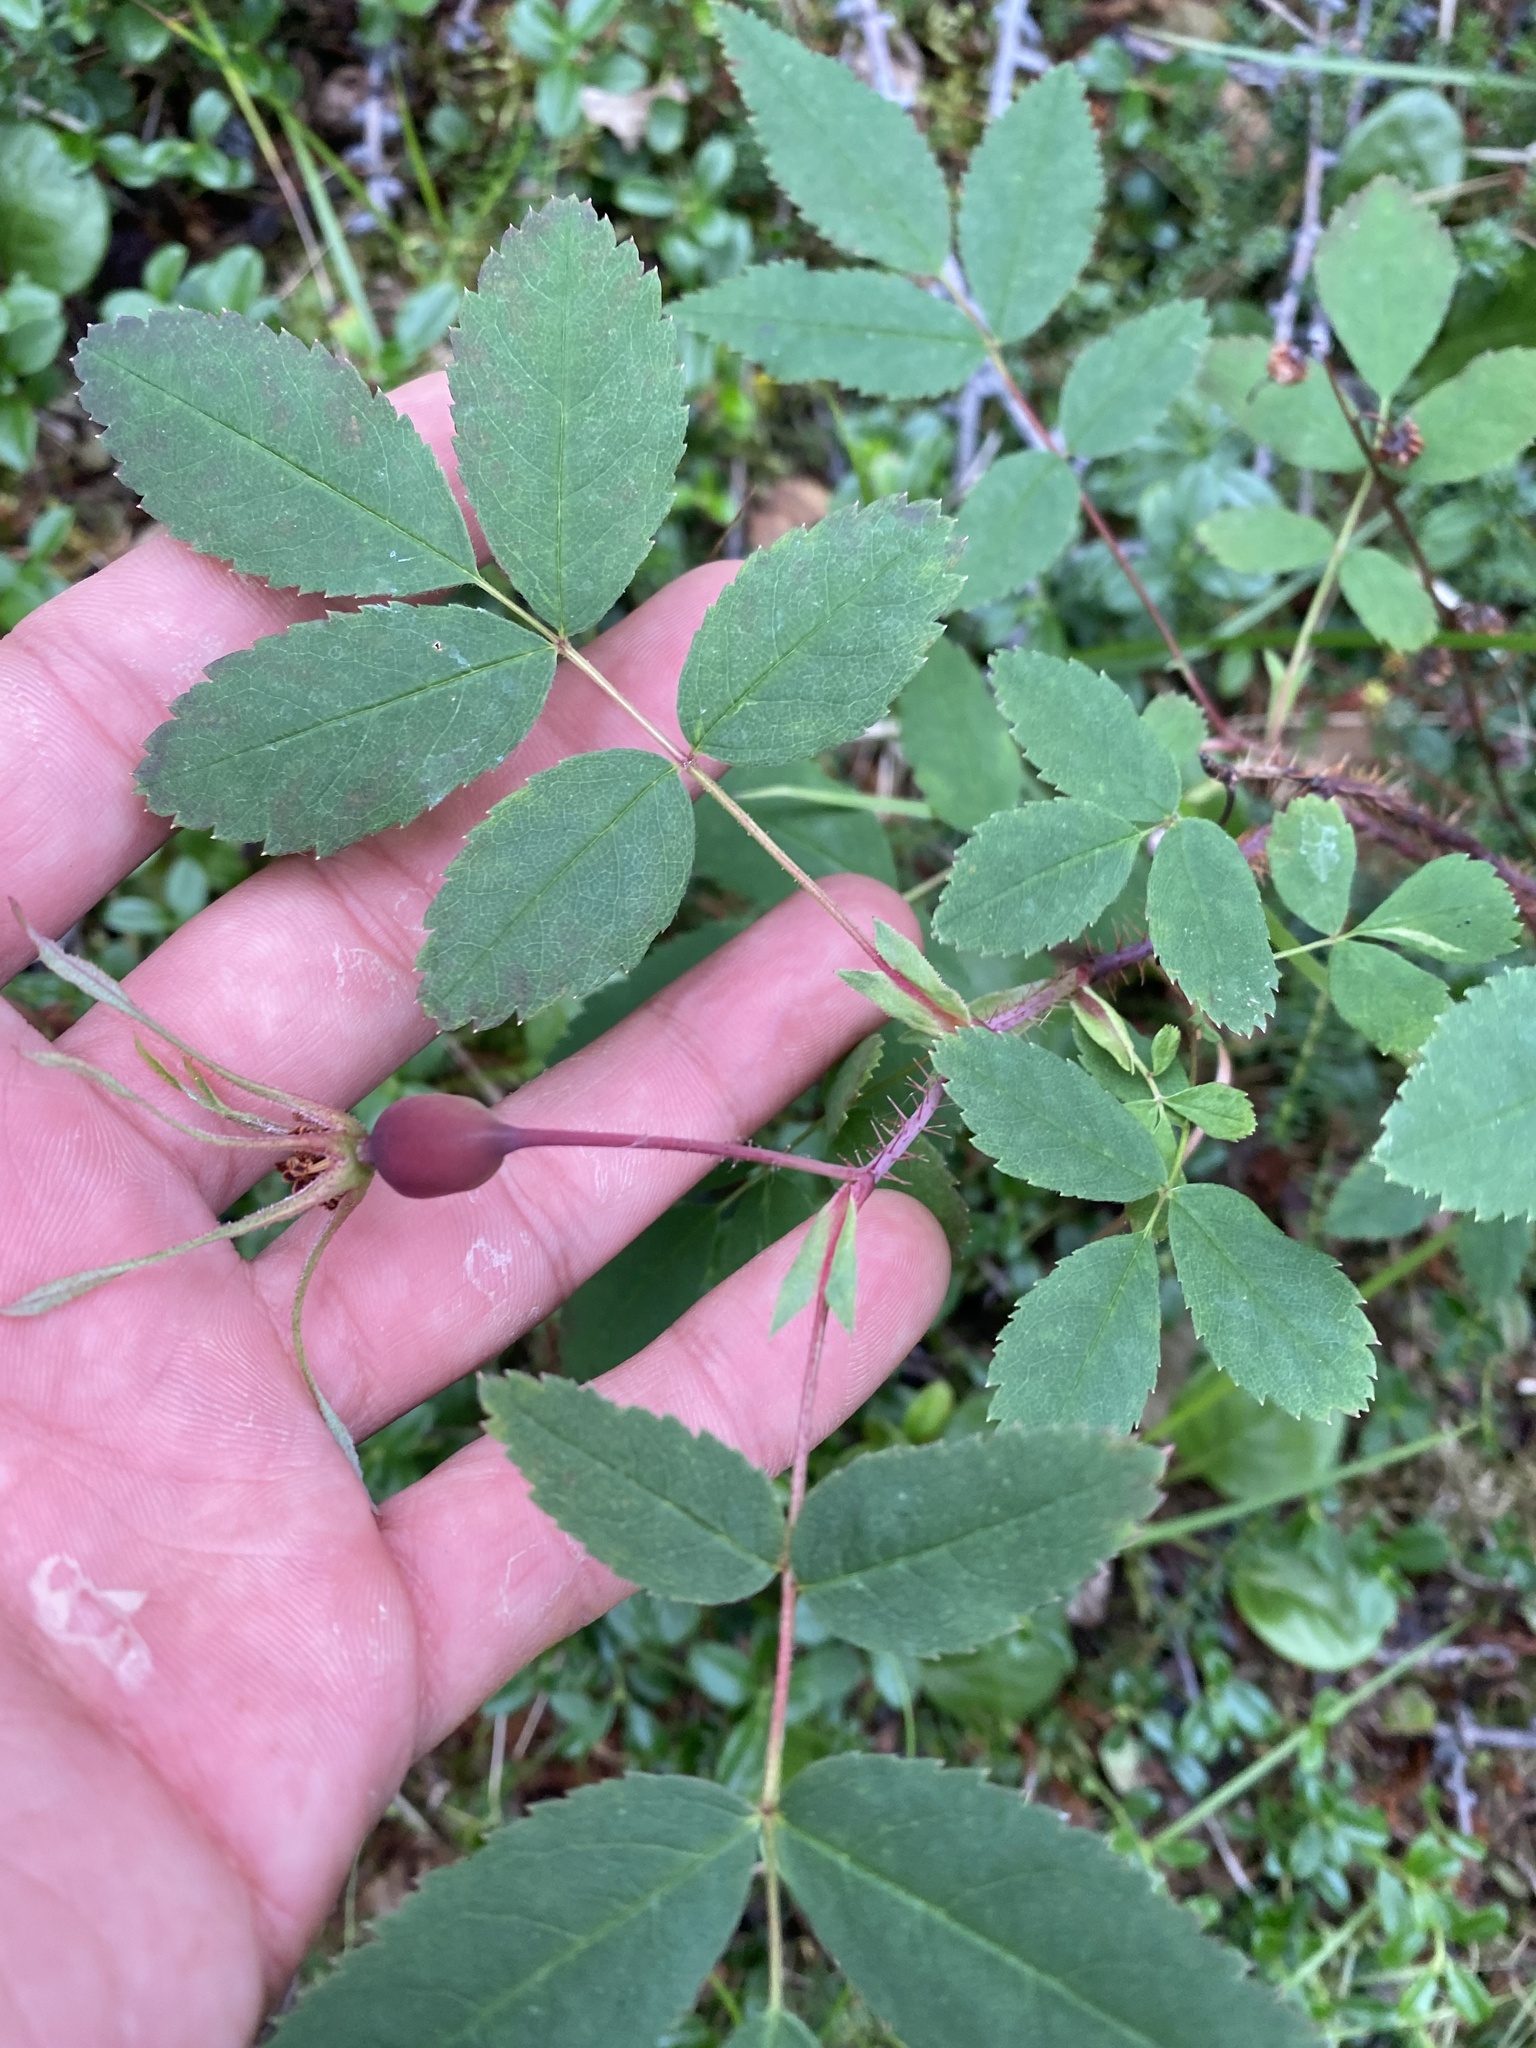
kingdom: Plantae
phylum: Tracheophyta
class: Magnoliopsida
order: Rosales
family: Rosaceae
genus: Rosa
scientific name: Rosa acicularis
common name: Prickly rose
